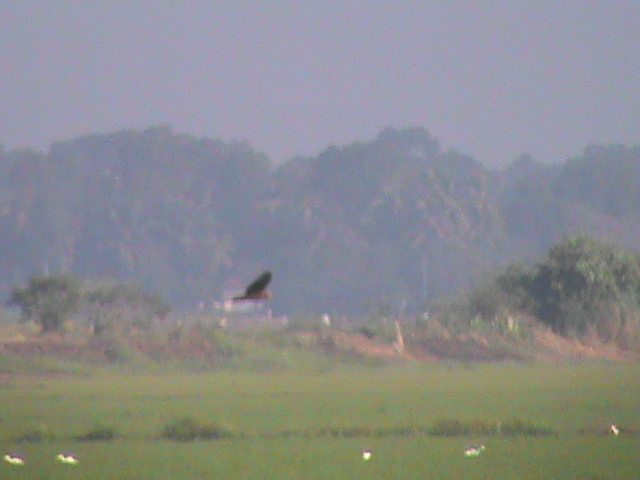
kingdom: Animalia
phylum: Chordata
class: Aves
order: Accipitriformes
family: Accipitridae
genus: Circus
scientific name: Circus aeruginosus
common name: Western marsh harrier
